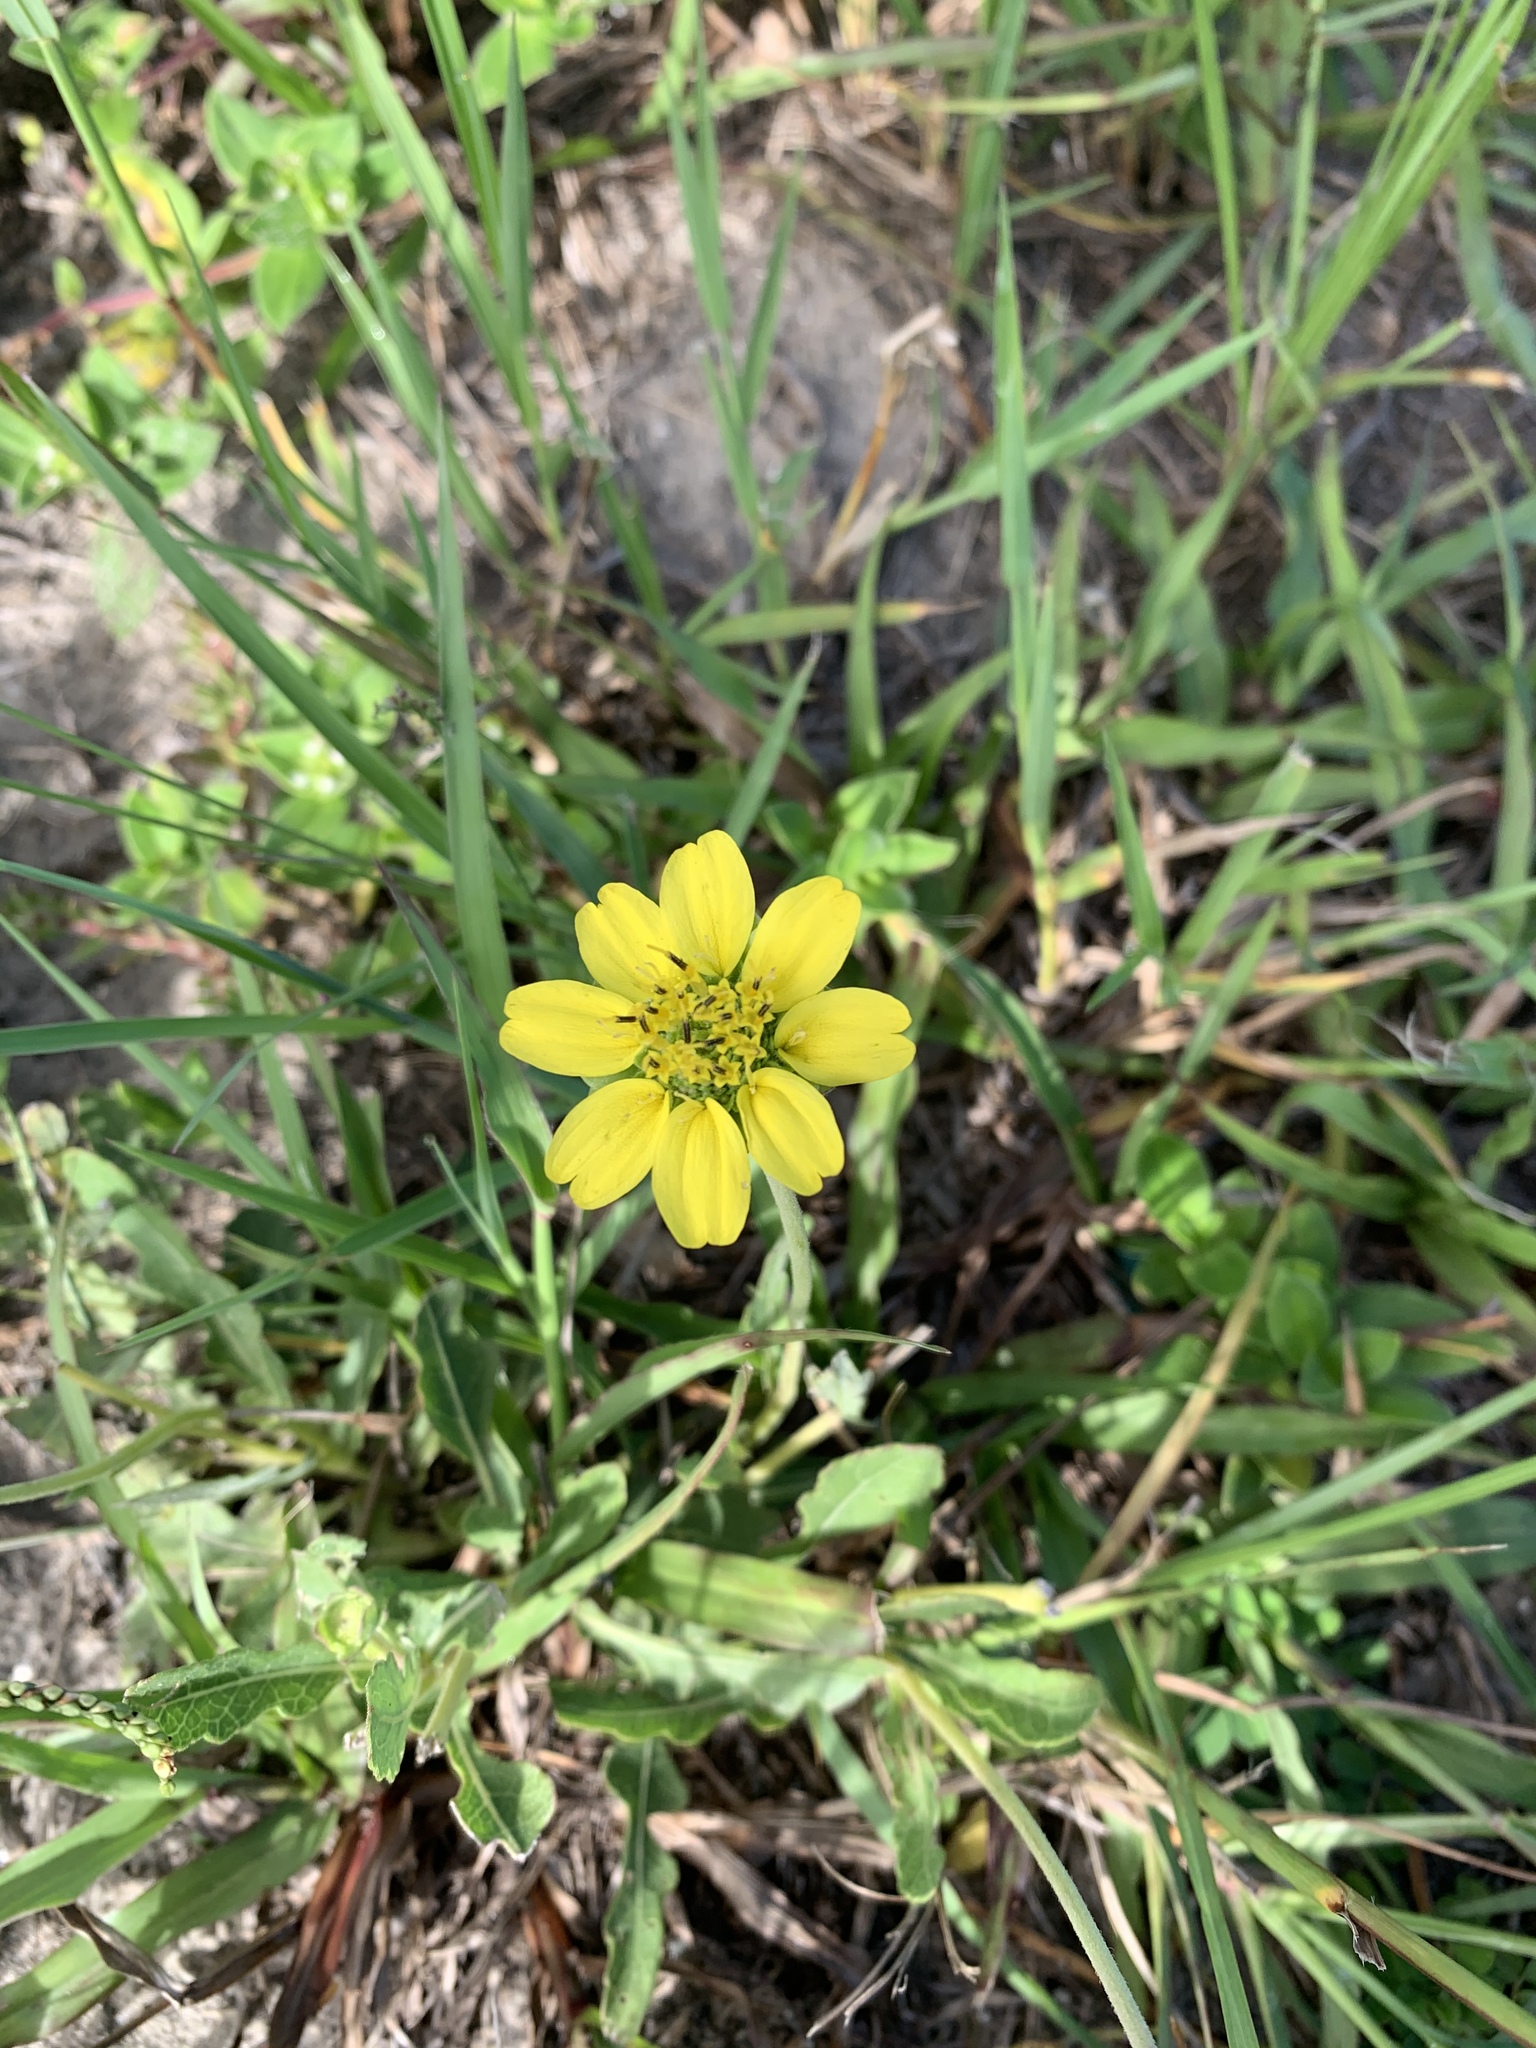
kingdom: Plantae
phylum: Tracheophyta
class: Magnoliopsida
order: Asterales
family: Asteraceae
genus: Berlandiera
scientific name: Berlandiera subacaulis
